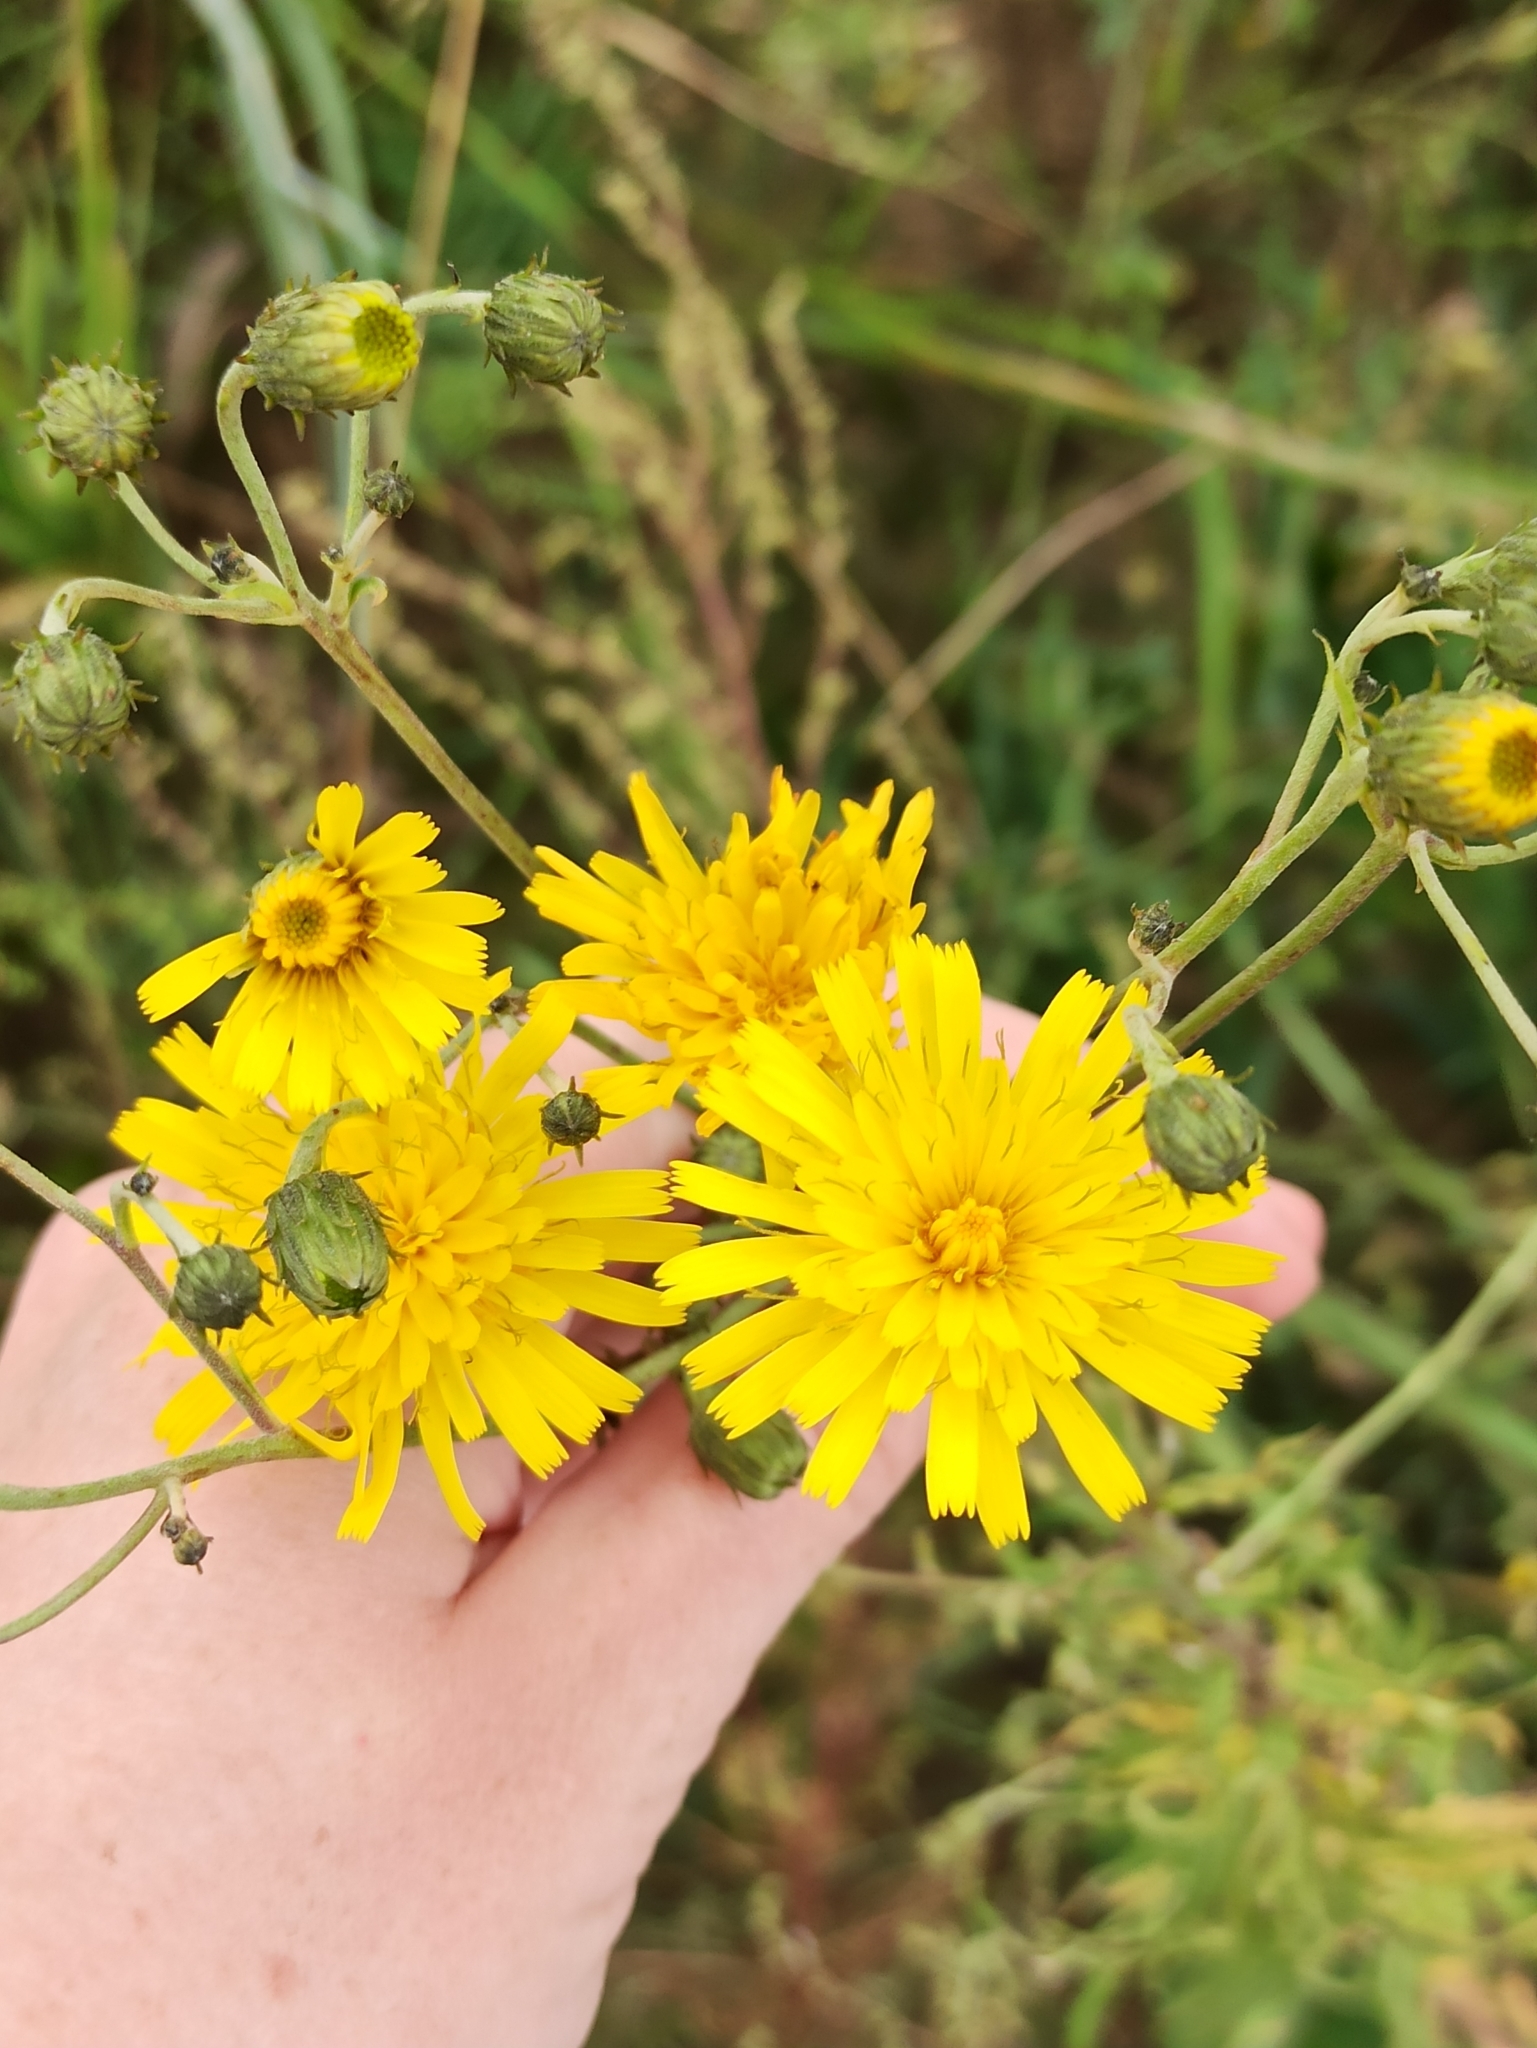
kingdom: Plantae
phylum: Tracheophyta
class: Magnoliopsida
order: Asterales
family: Asteraceae
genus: Hieracium
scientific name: Hieracium umbellatum
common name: Northern hawkweed
